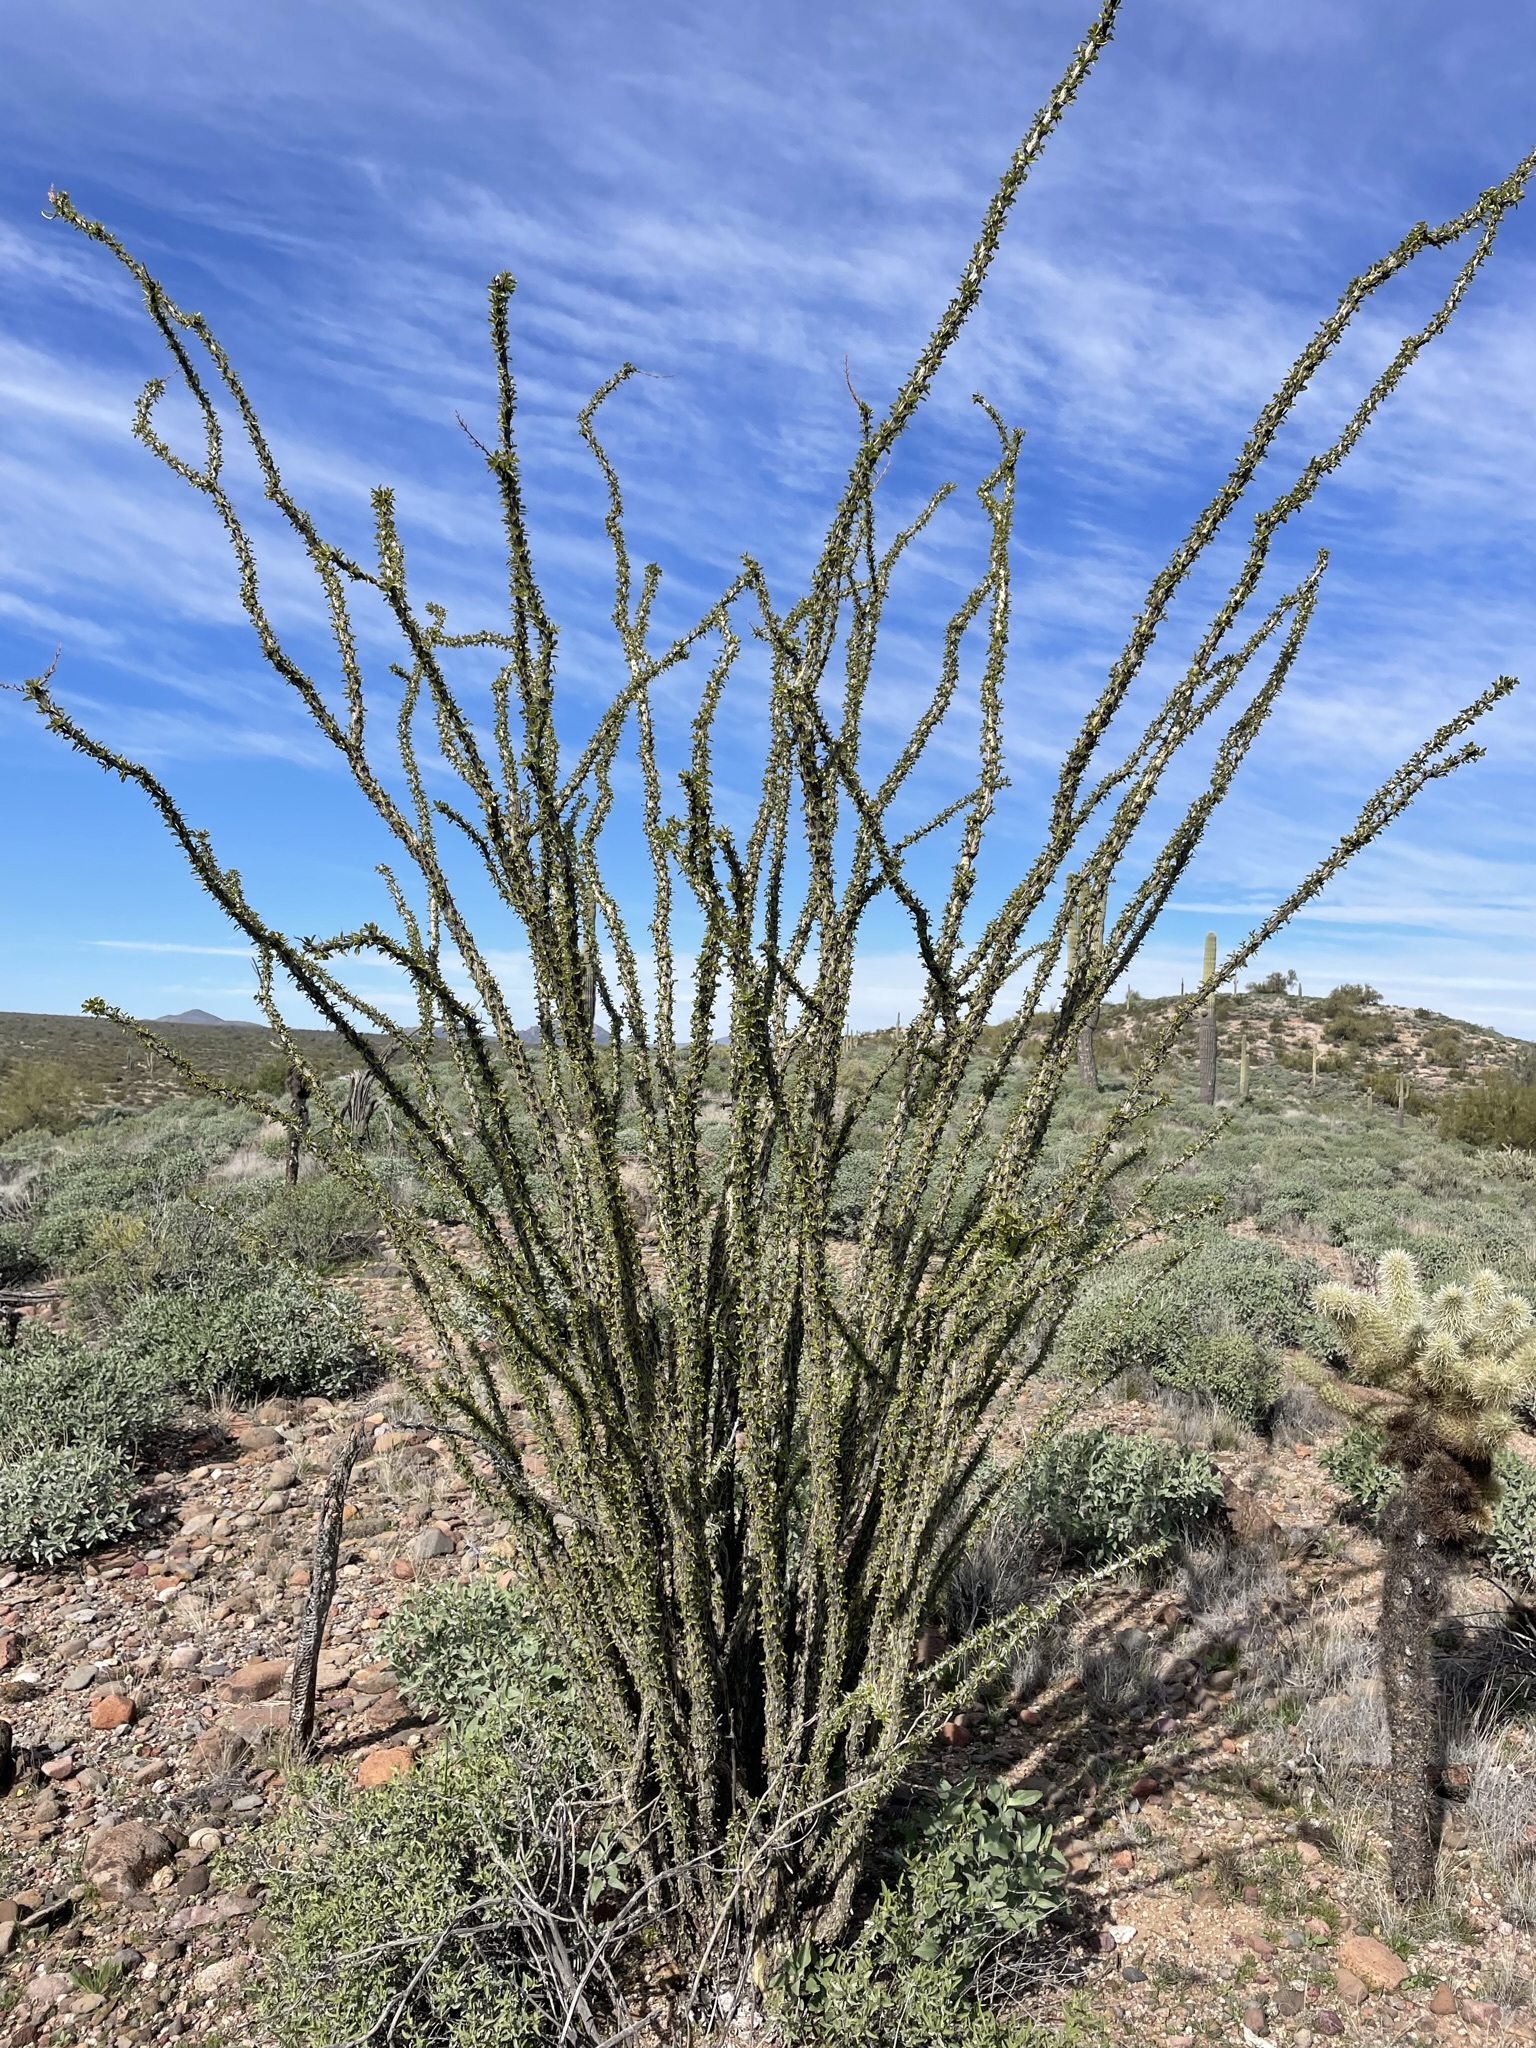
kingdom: Plantae
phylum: Tracheophyta
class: Magnoliopsida
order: Ericales
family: Fouquieriaceae
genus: Fouquieria
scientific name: Fouquieria splendens
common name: Vine-cactus
